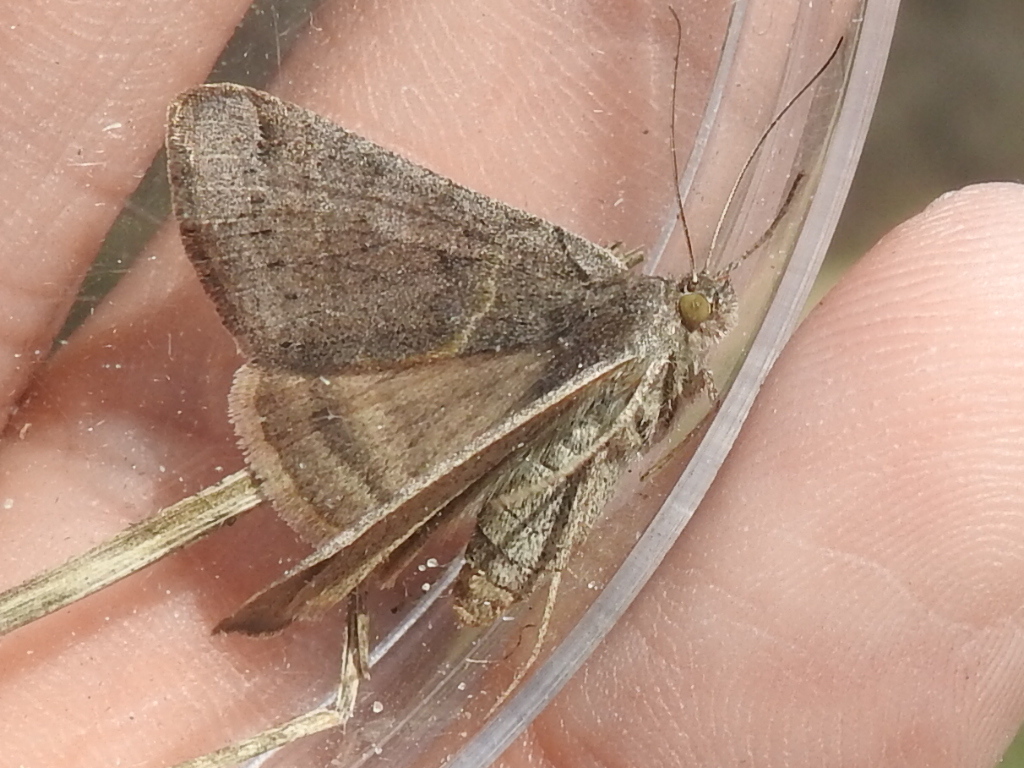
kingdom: Animalia
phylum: Arthropoda
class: Insecta
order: Lepidoptera
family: Erebidae
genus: Caenurgina
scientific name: Caenurgina erechtea
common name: Forage looper moth
